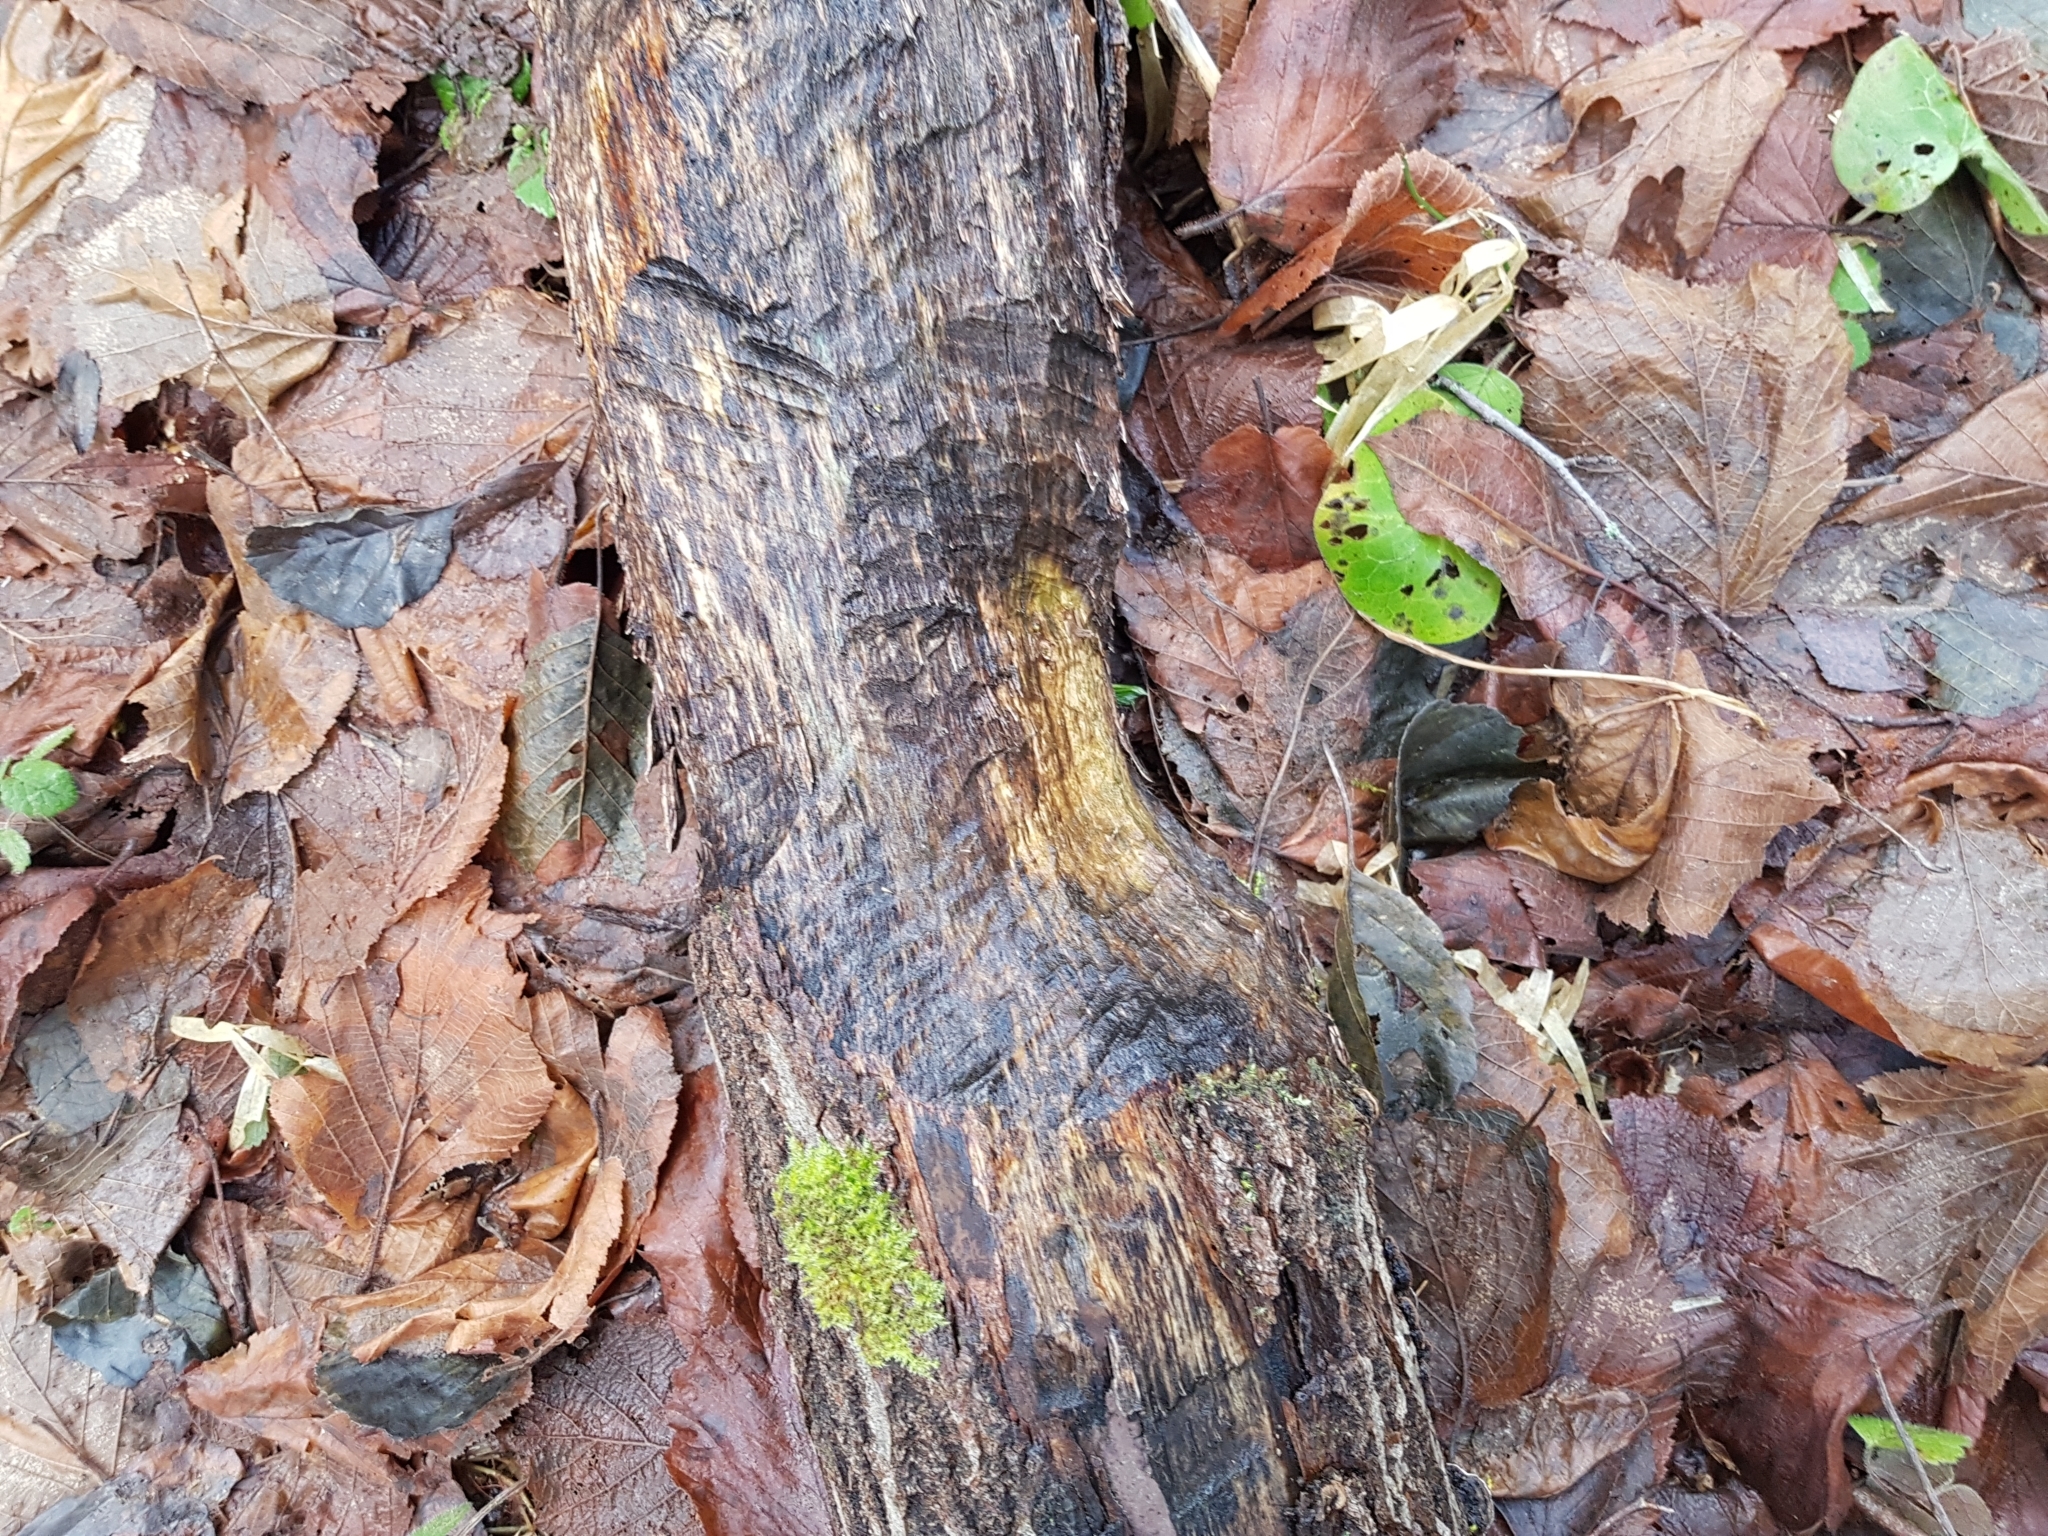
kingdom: Animalia
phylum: Chordata
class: Mammalia
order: Rodentia
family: Castoridae
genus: Castor
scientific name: Castor fiber
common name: Eurasian beaver
